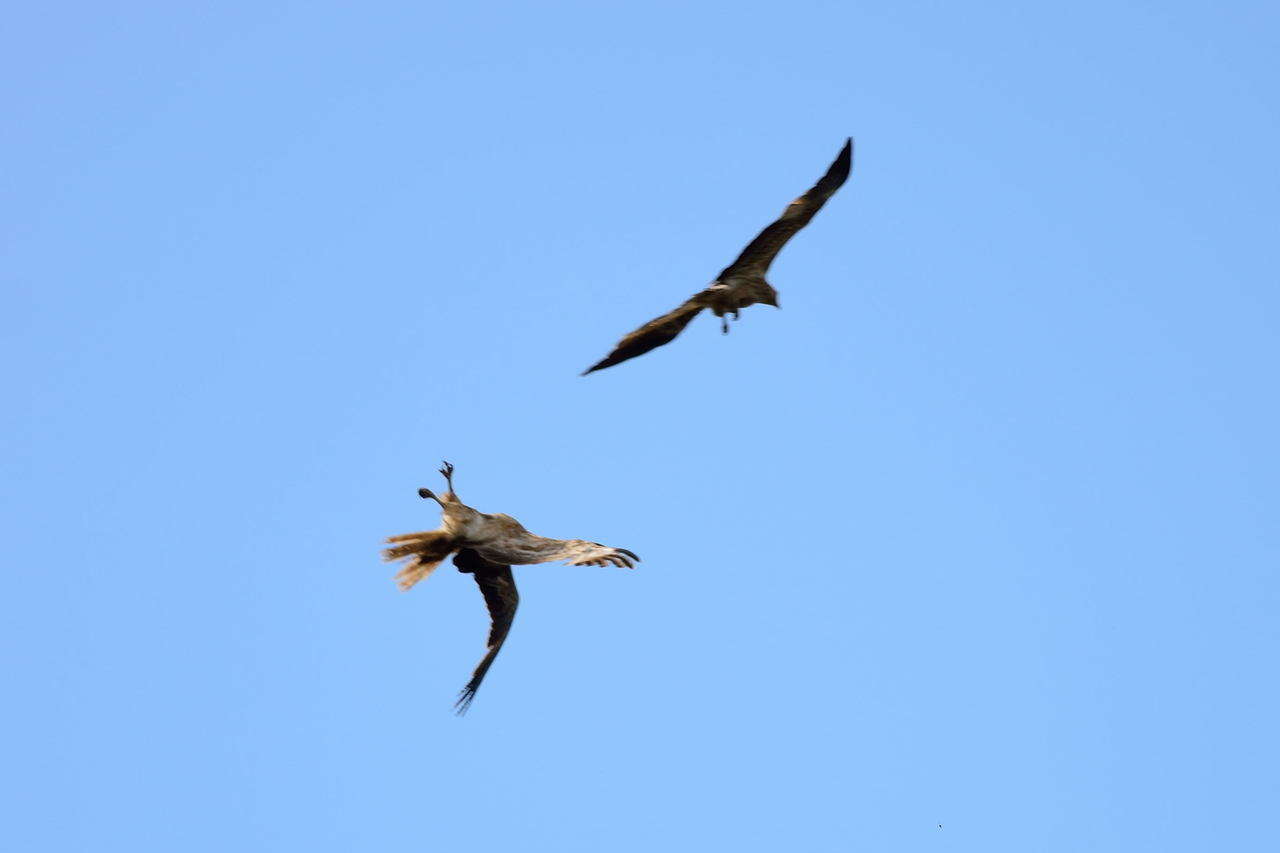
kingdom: Animalia
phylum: Chordata
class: Aves
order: Accipitriformes
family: Accipitridae
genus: Haliastur
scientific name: Haliastur sphenurus
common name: Whistling kite
